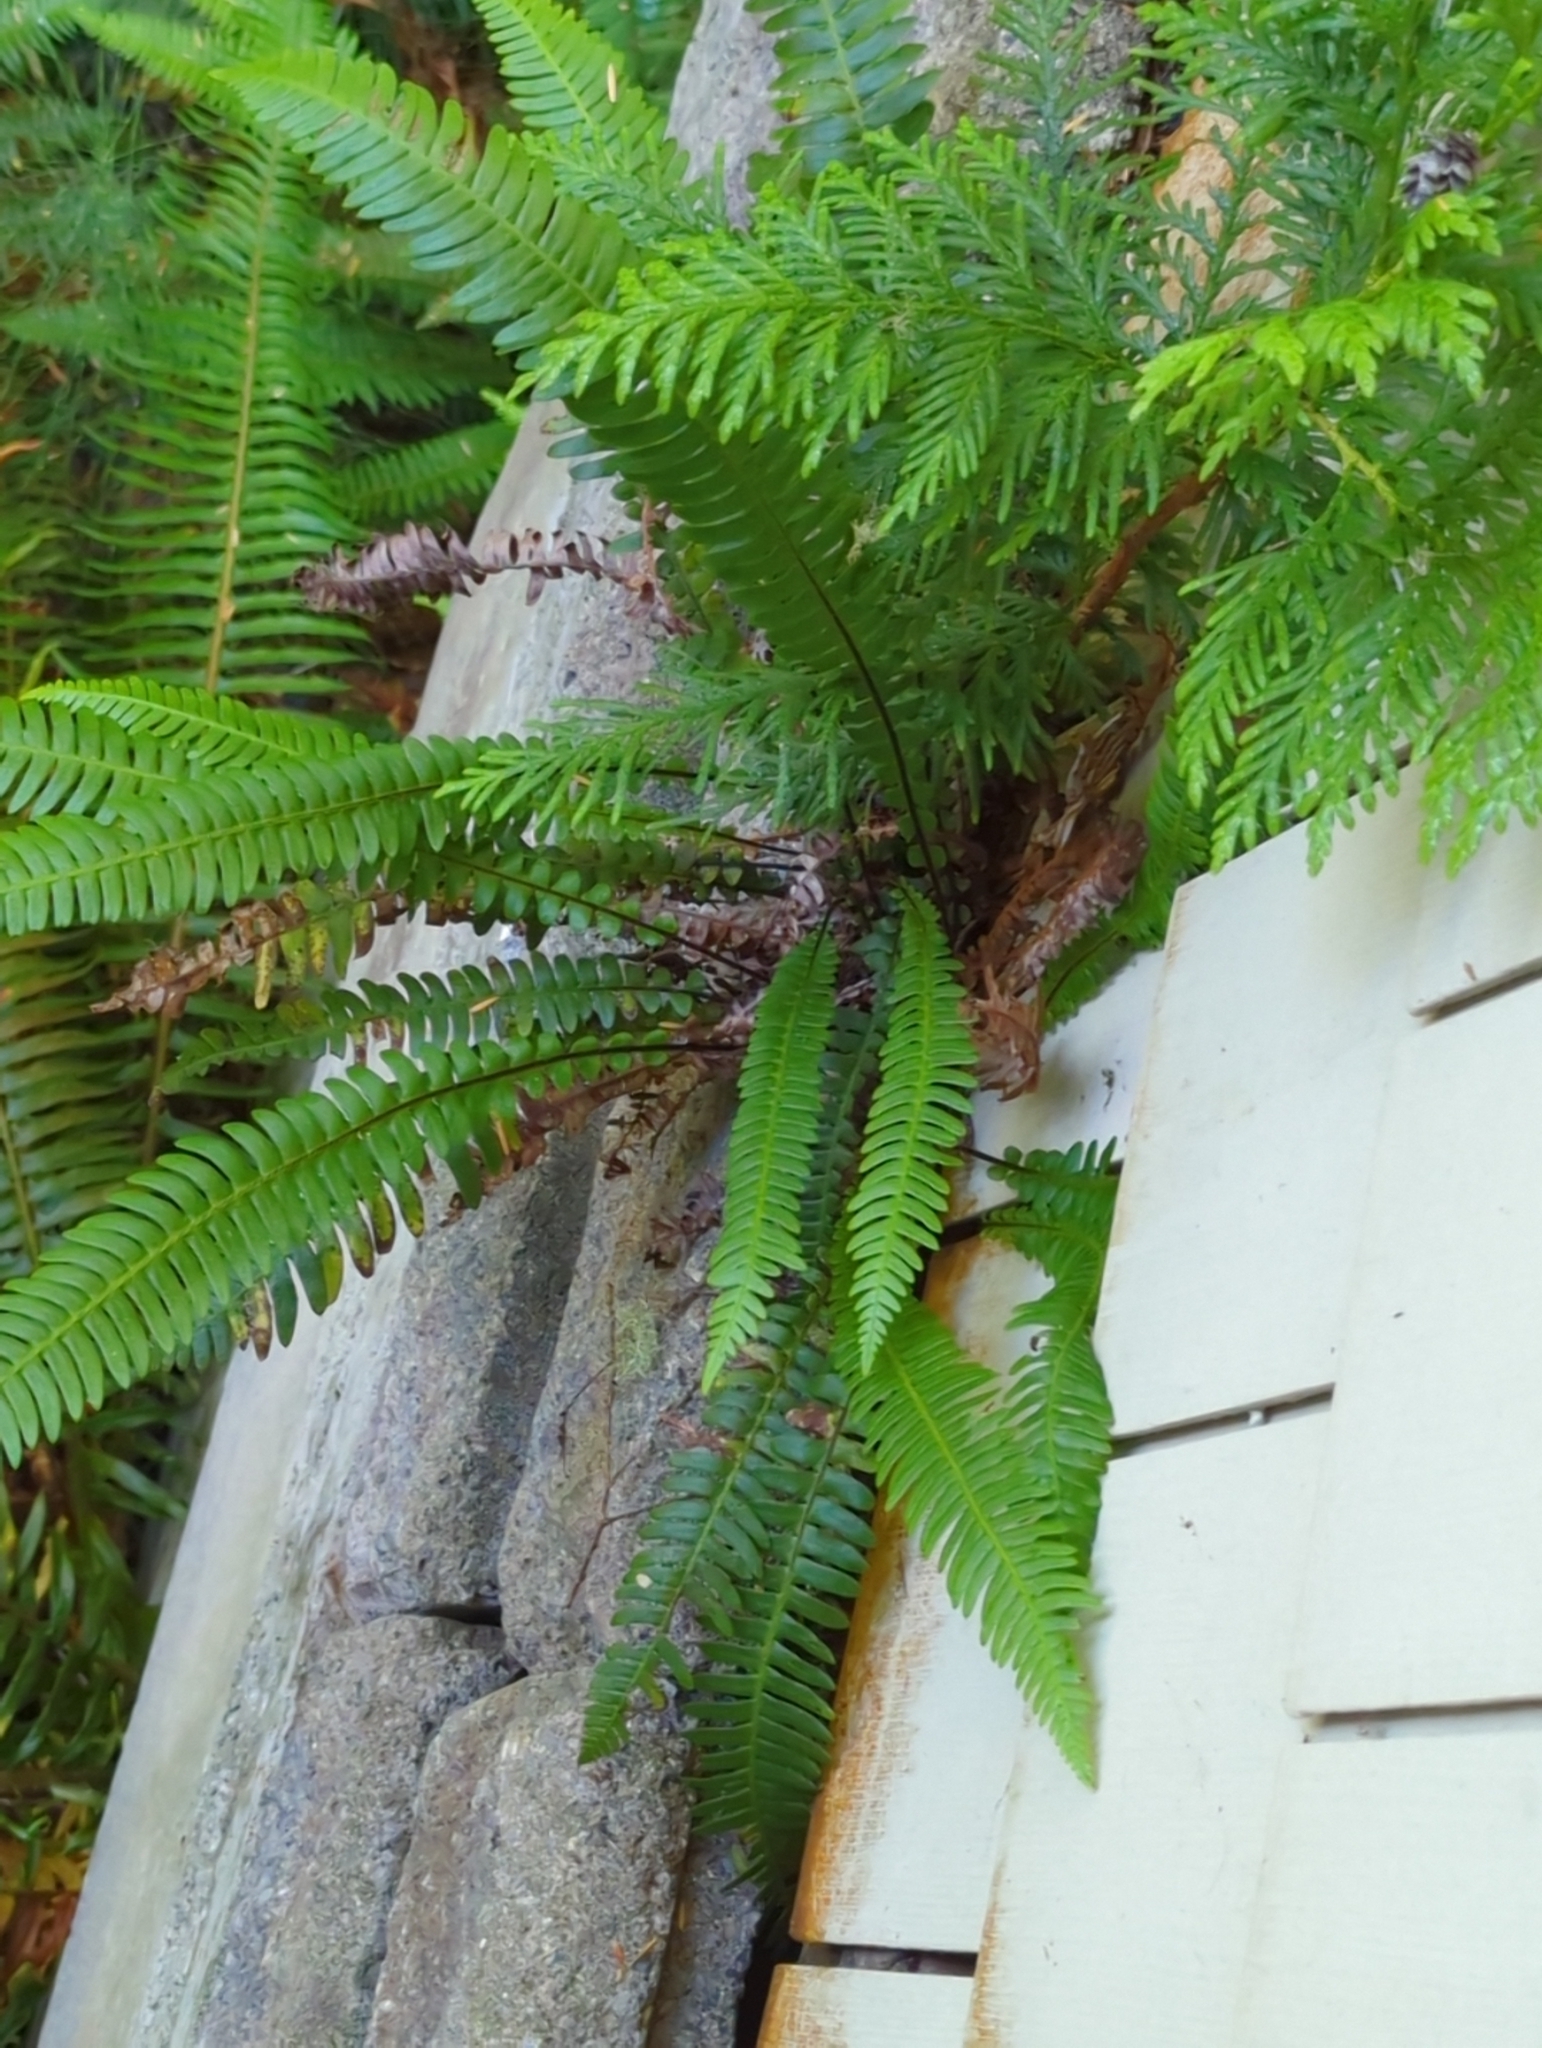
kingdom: Plantae
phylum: Tracheophyta
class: Polypodiopsida
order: Polypodiales
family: Blechnaceae
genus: Struthiopteris
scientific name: Struthiopteris spicant
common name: Deer fern
